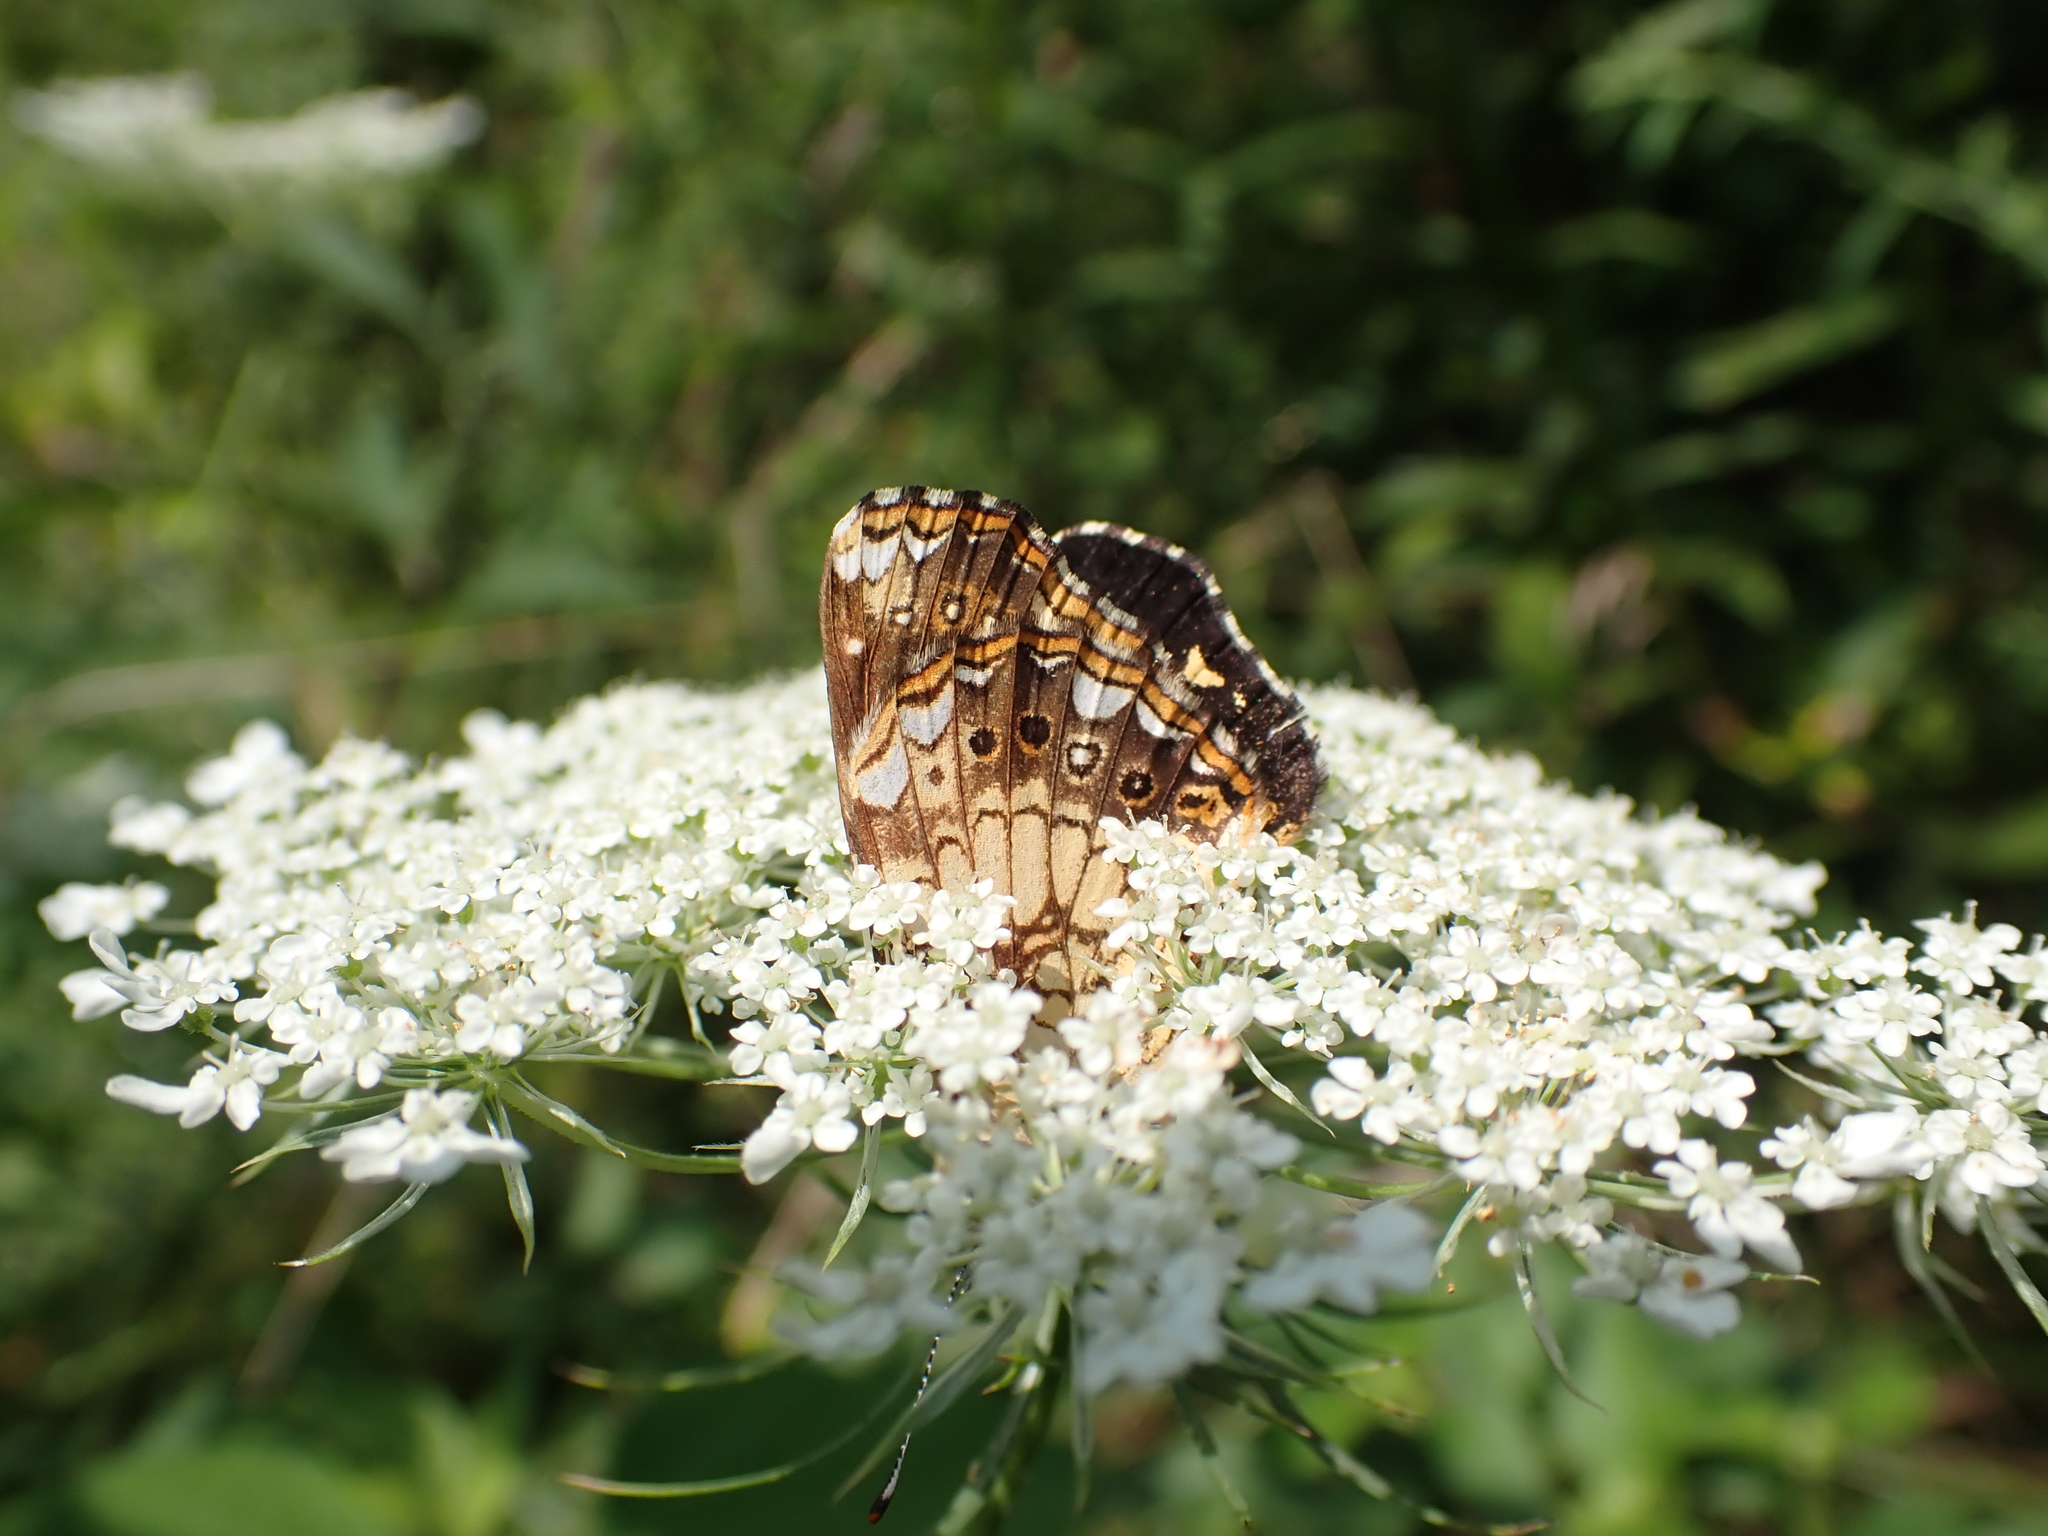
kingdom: Animalia
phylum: Arthropoda
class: Insecta
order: Lepidoptera
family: Nymphalidae
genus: Chlosyne
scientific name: Chlosyne nycteis
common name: Silvery checkerspot
